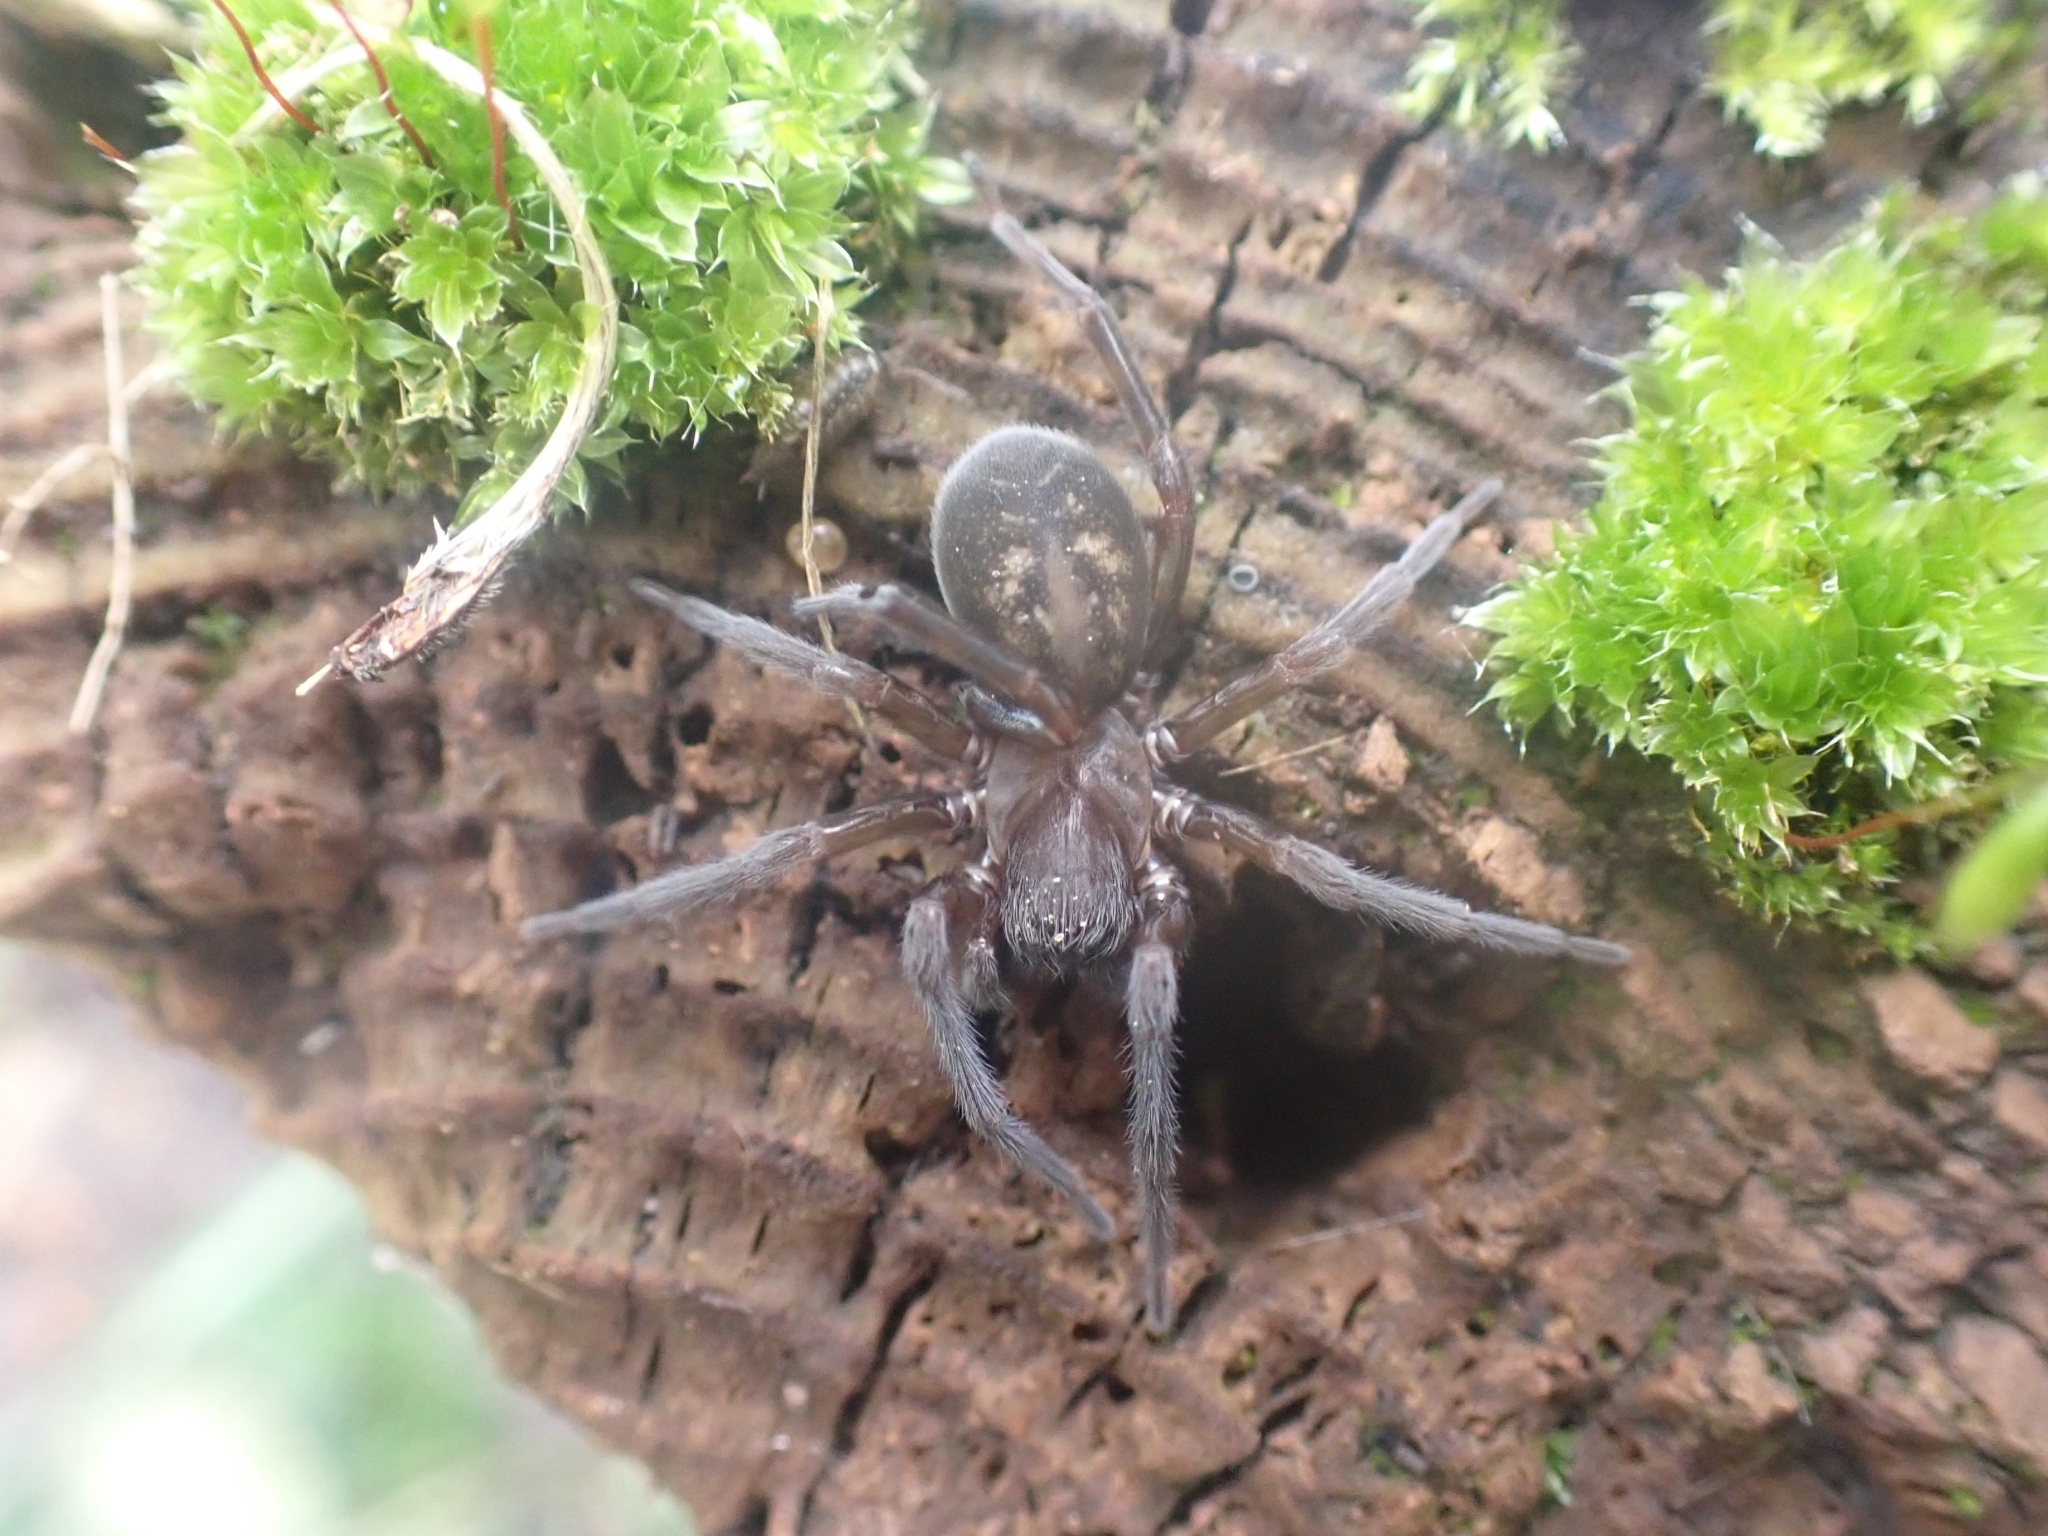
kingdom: Animalia
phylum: Arthropoda
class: Arachnida
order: Araneae
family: Amaurobiidae
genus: Amaurobius
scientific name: Amaurobius ferox
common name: Black laceweaver
